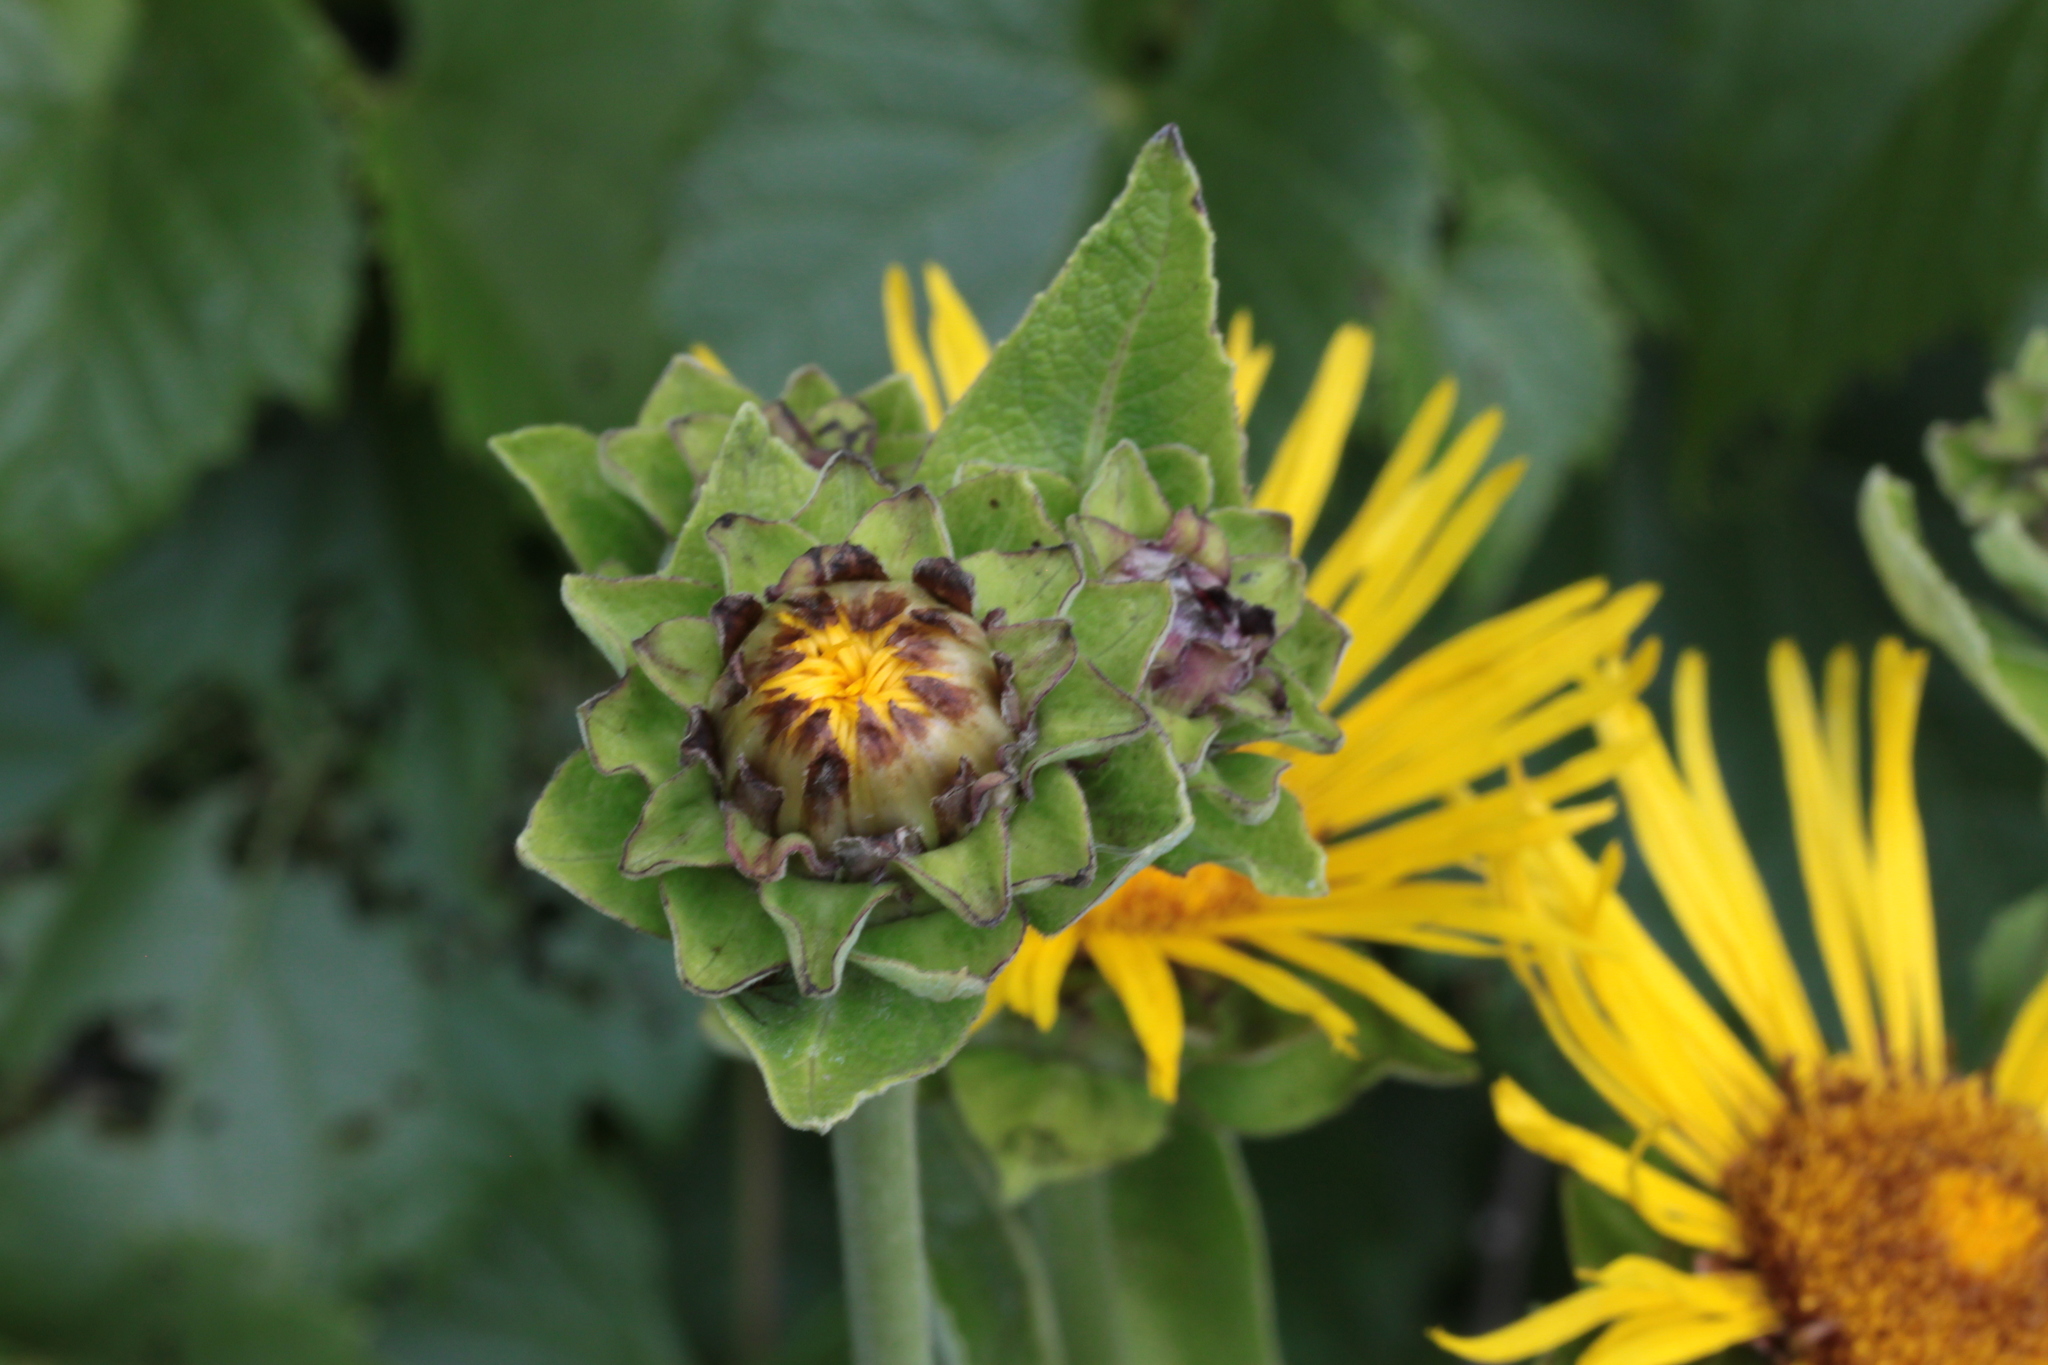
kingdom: Plantae
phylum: Tracheophyta
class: Magnoliopsida
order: Asterales
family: Asteraceae
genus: Inula
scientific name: Inula helenium
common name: Elecampane
